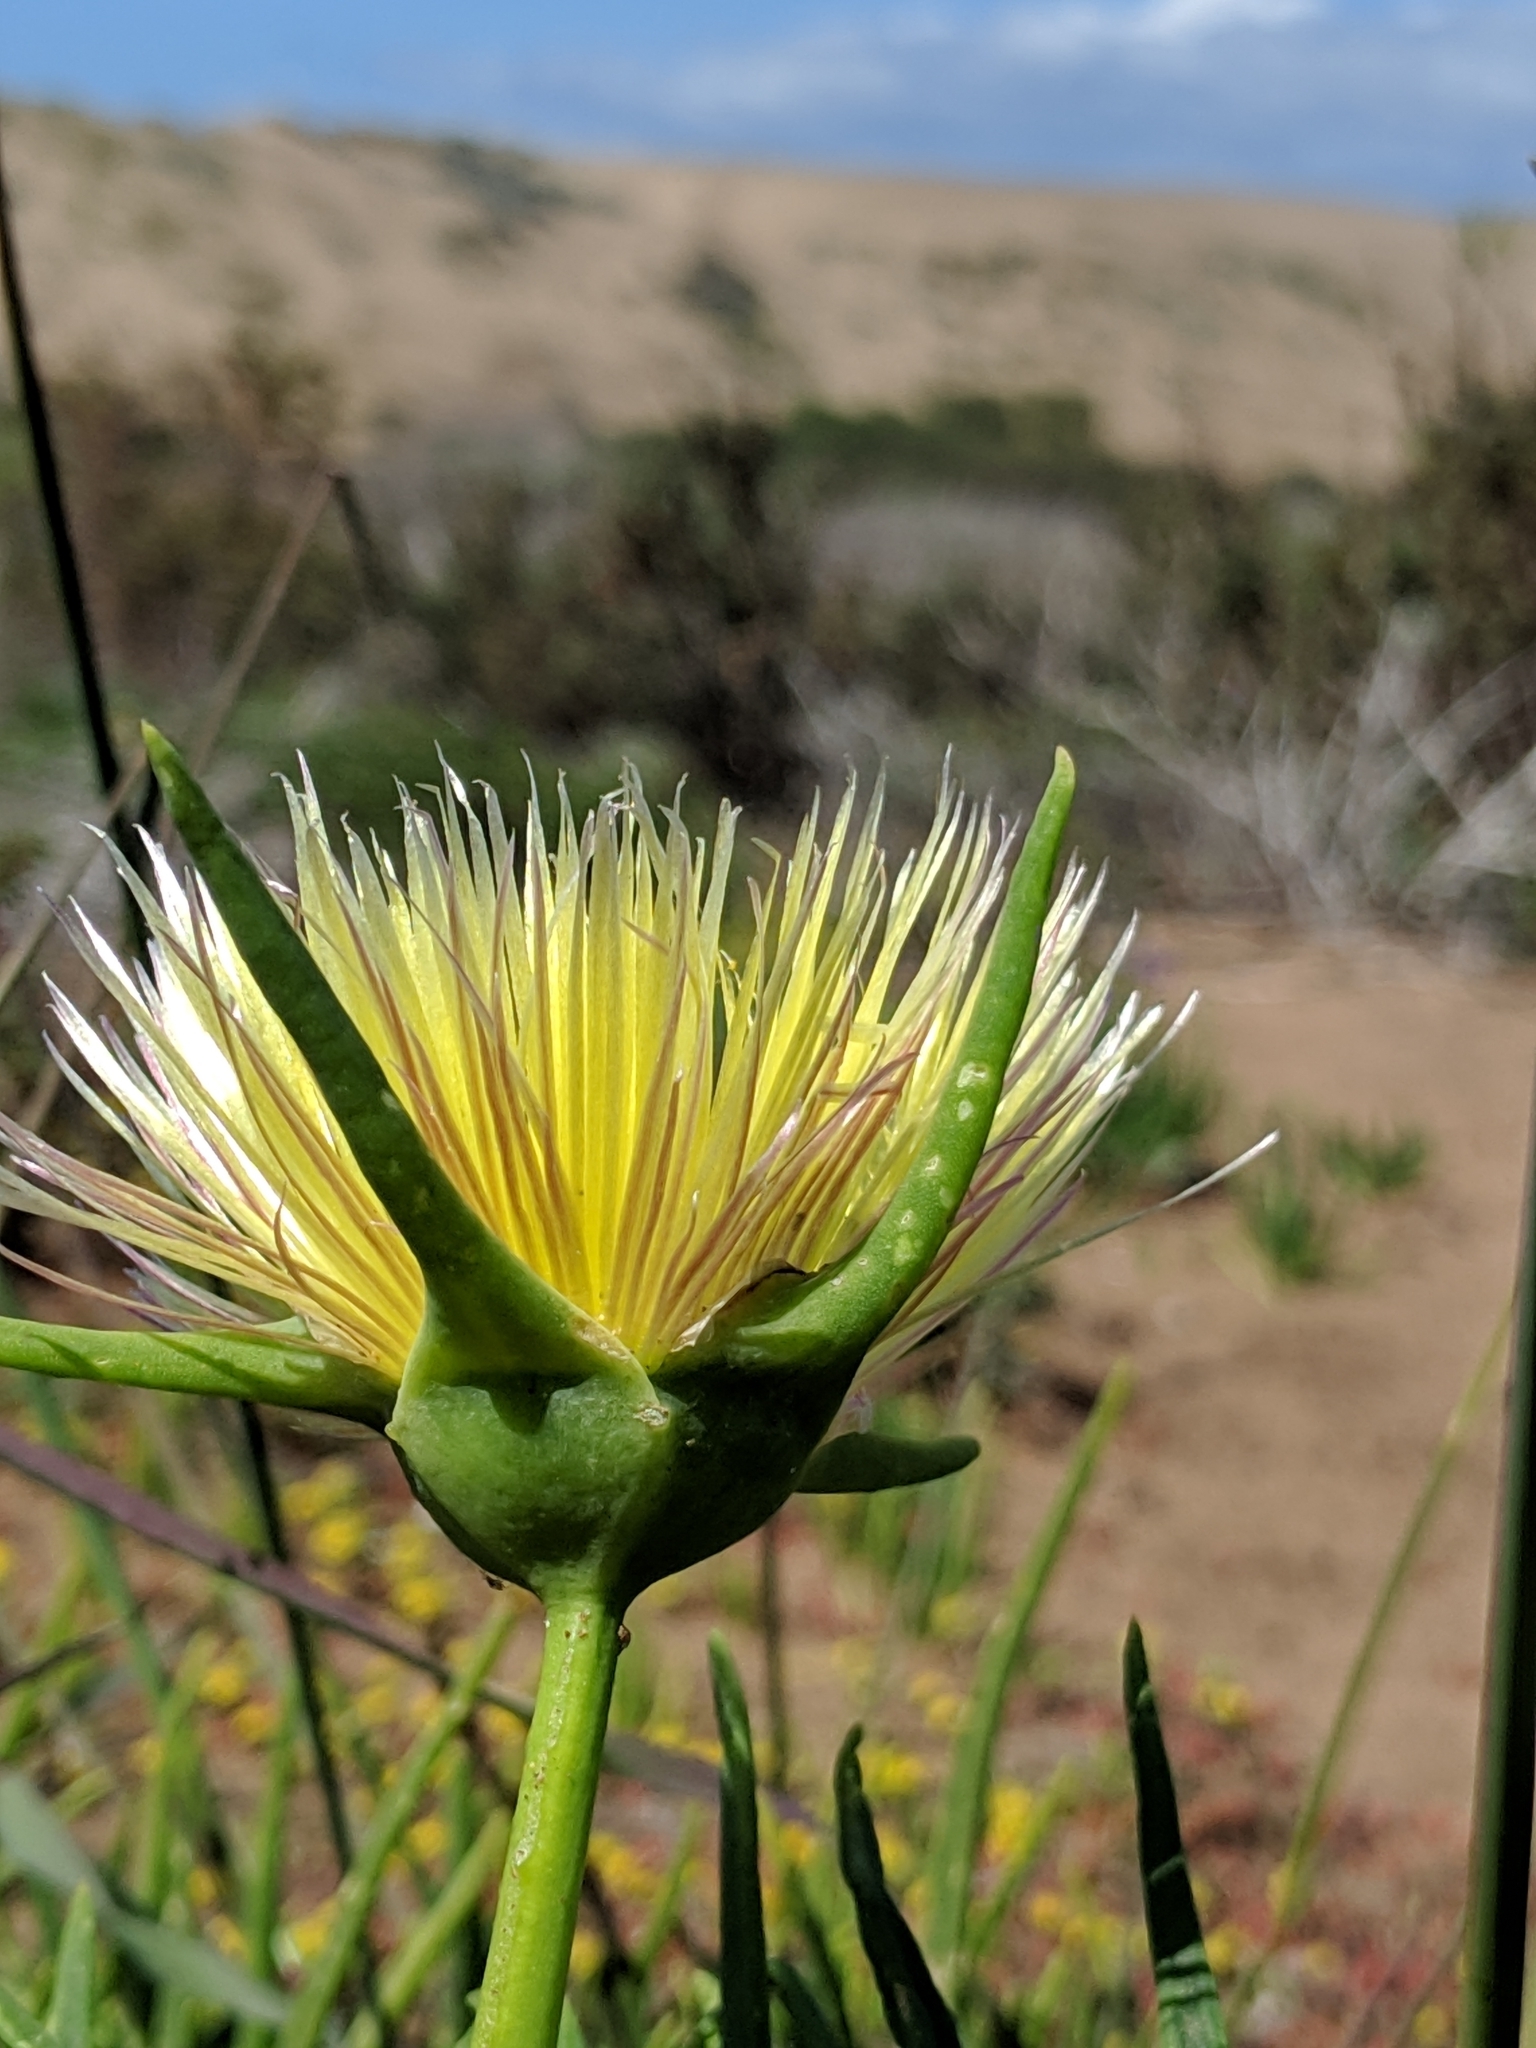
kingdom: Plantae
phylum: Tracheophyta
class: Magnoliopsida
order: Caryophyllales
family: Aizoaceae
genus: Conicosia
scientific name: Conicosia pugioniformis
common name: Narrow-leaved iceplant
